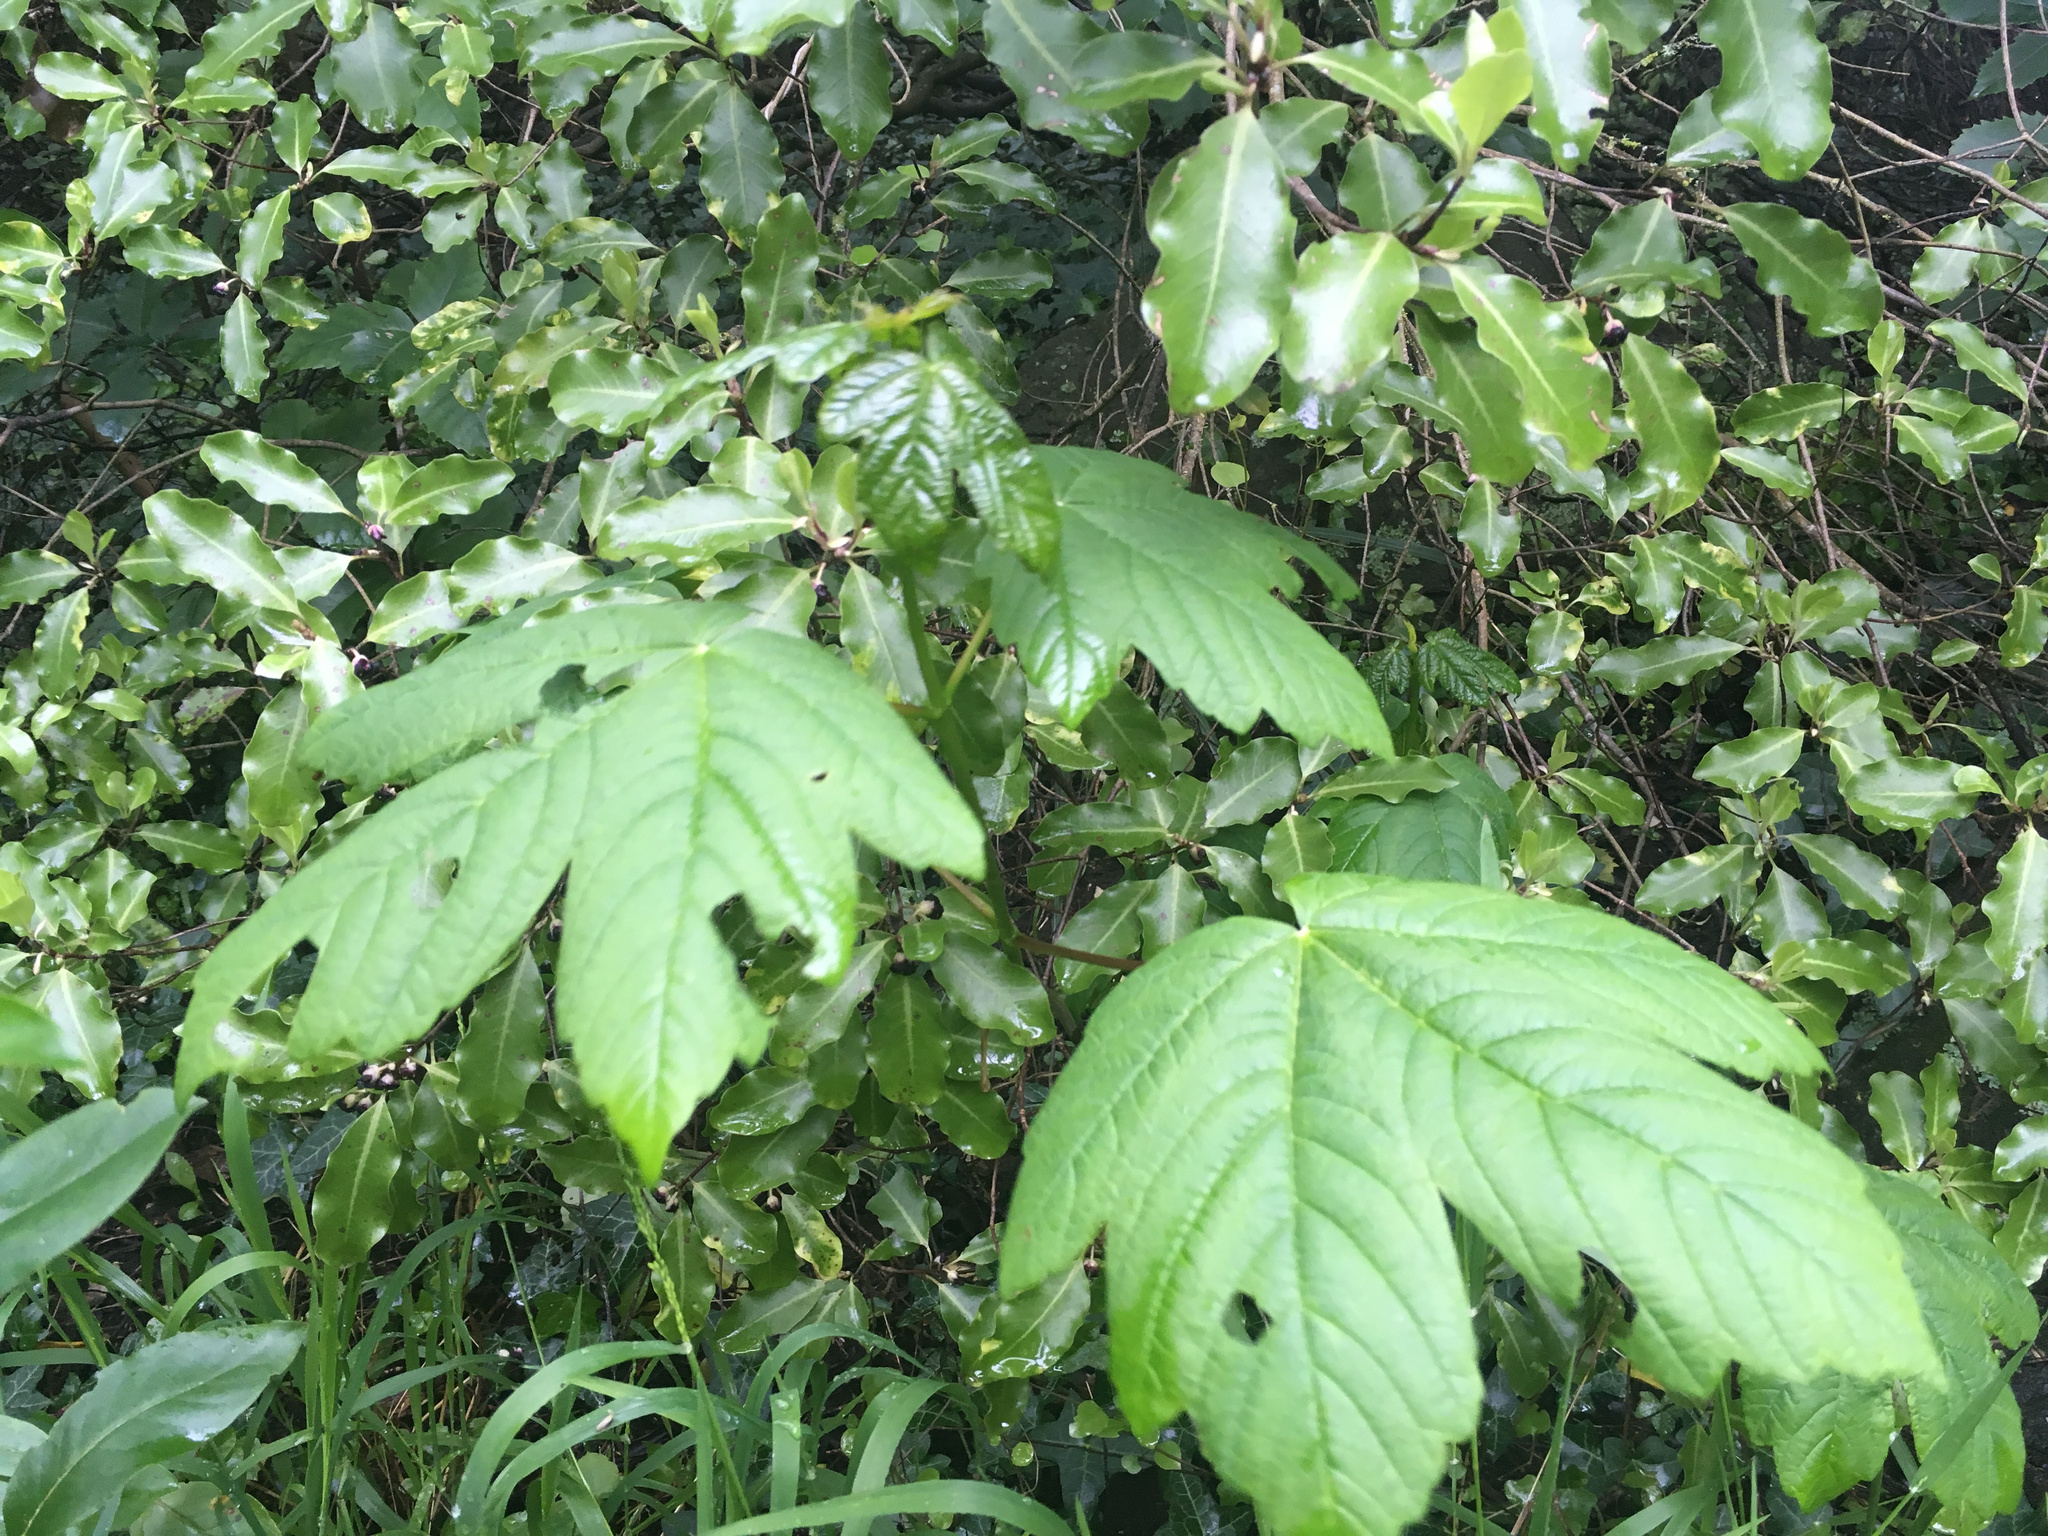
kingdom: Plantae
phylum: Tracheophyta
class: Magnoliopsida
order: Sapindales
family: Sapindaceae
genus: Acer
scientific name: Acer pseudoplatanus
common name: Sycamore
